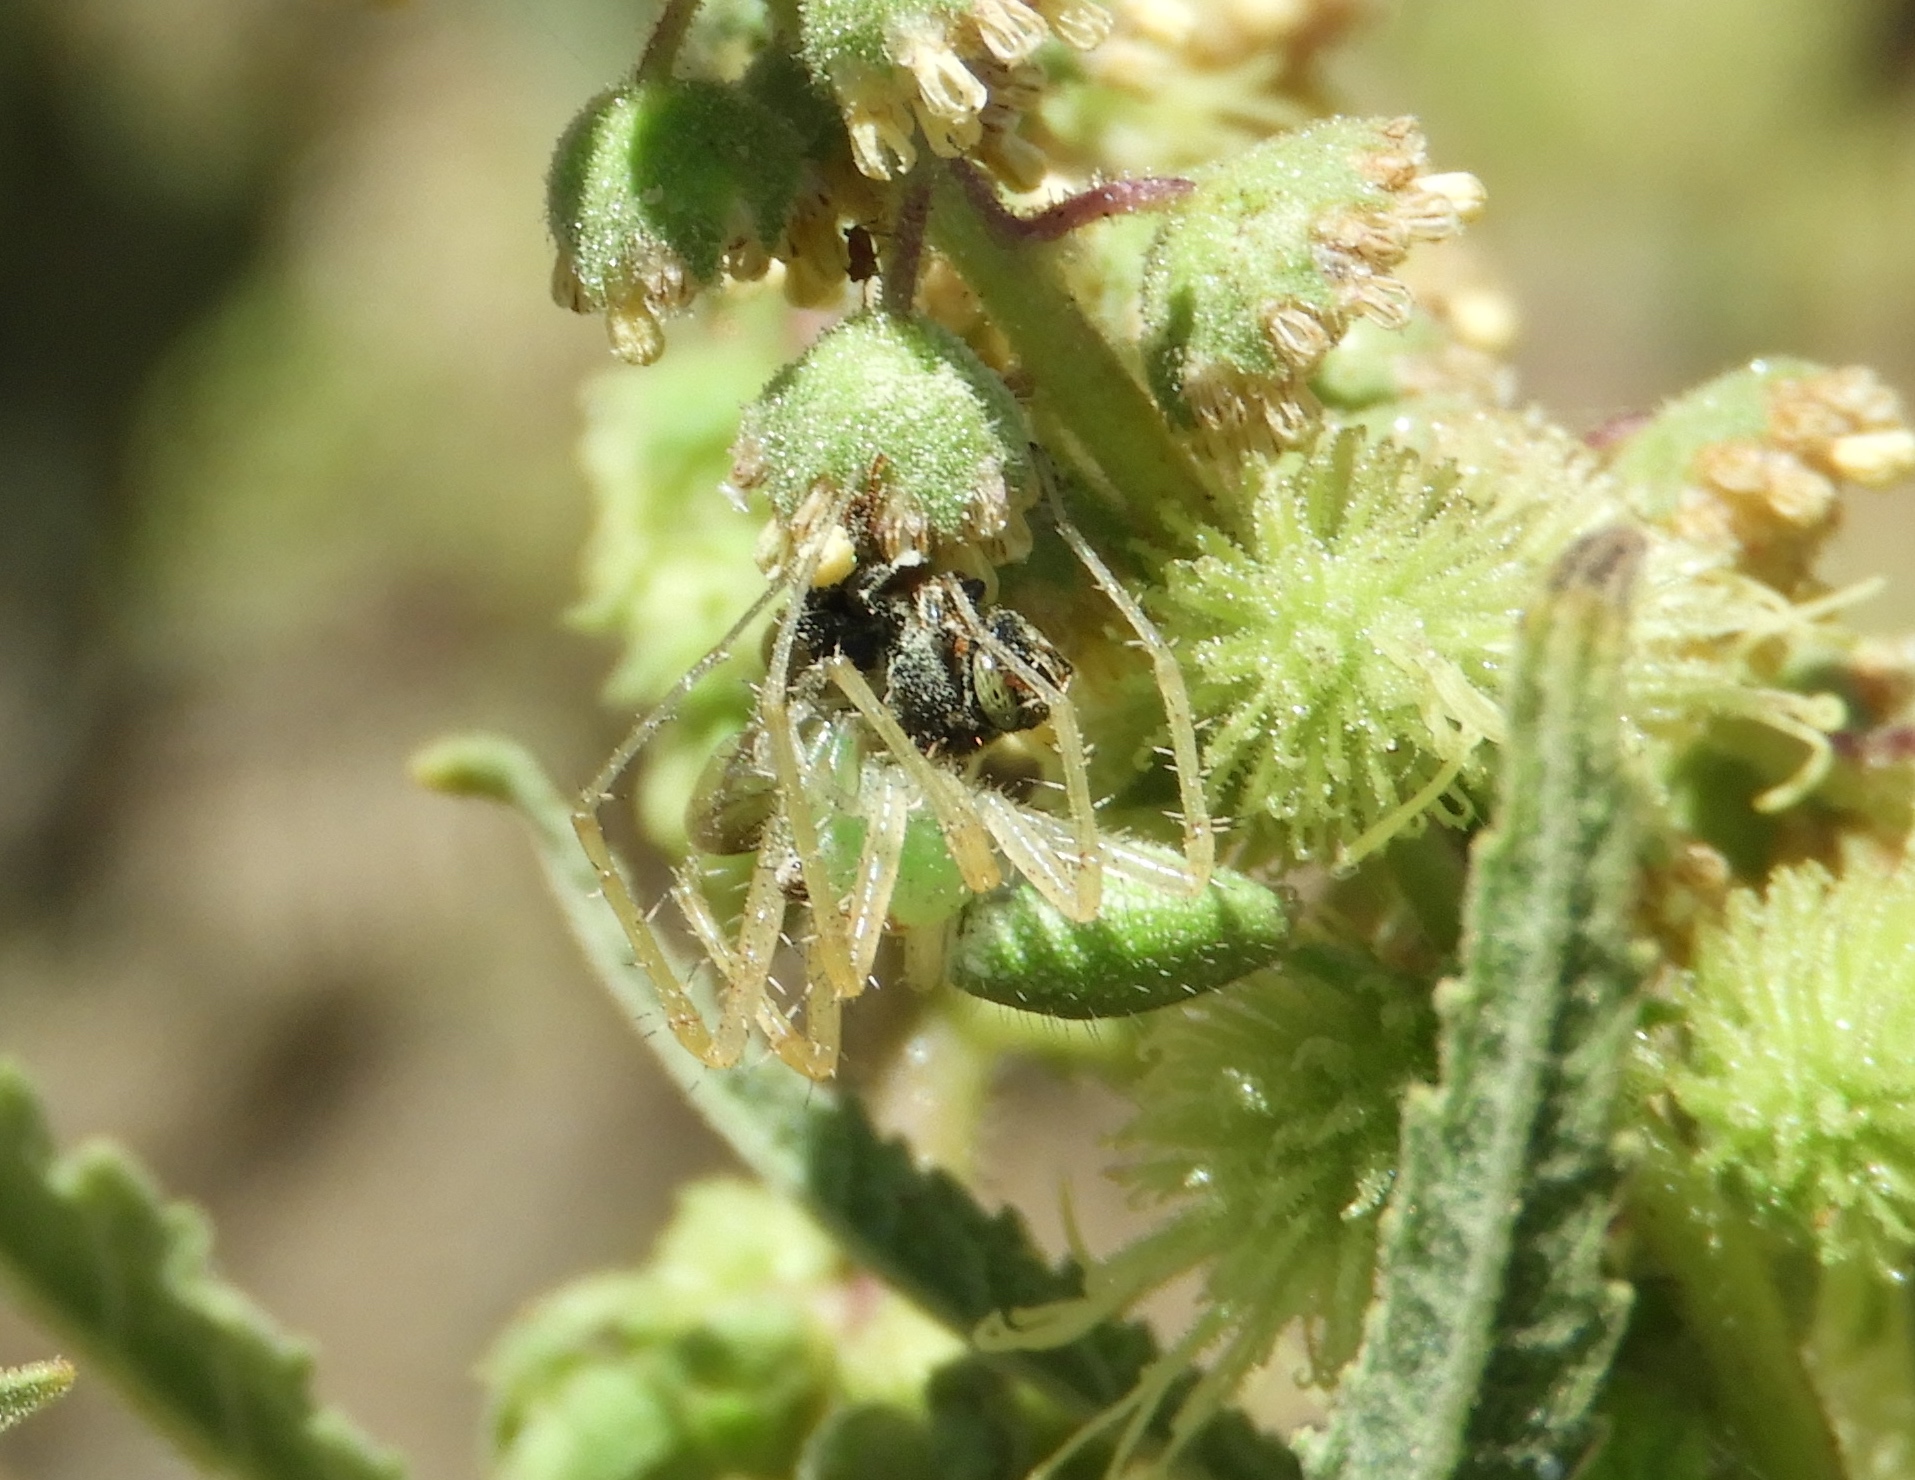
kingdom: Animalia
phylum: Arthropoda
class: Arachnida
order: Araneae
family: Oxyopidae
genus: Peucetia
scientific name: Peucetia longipalpis
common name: Lynx spiders
